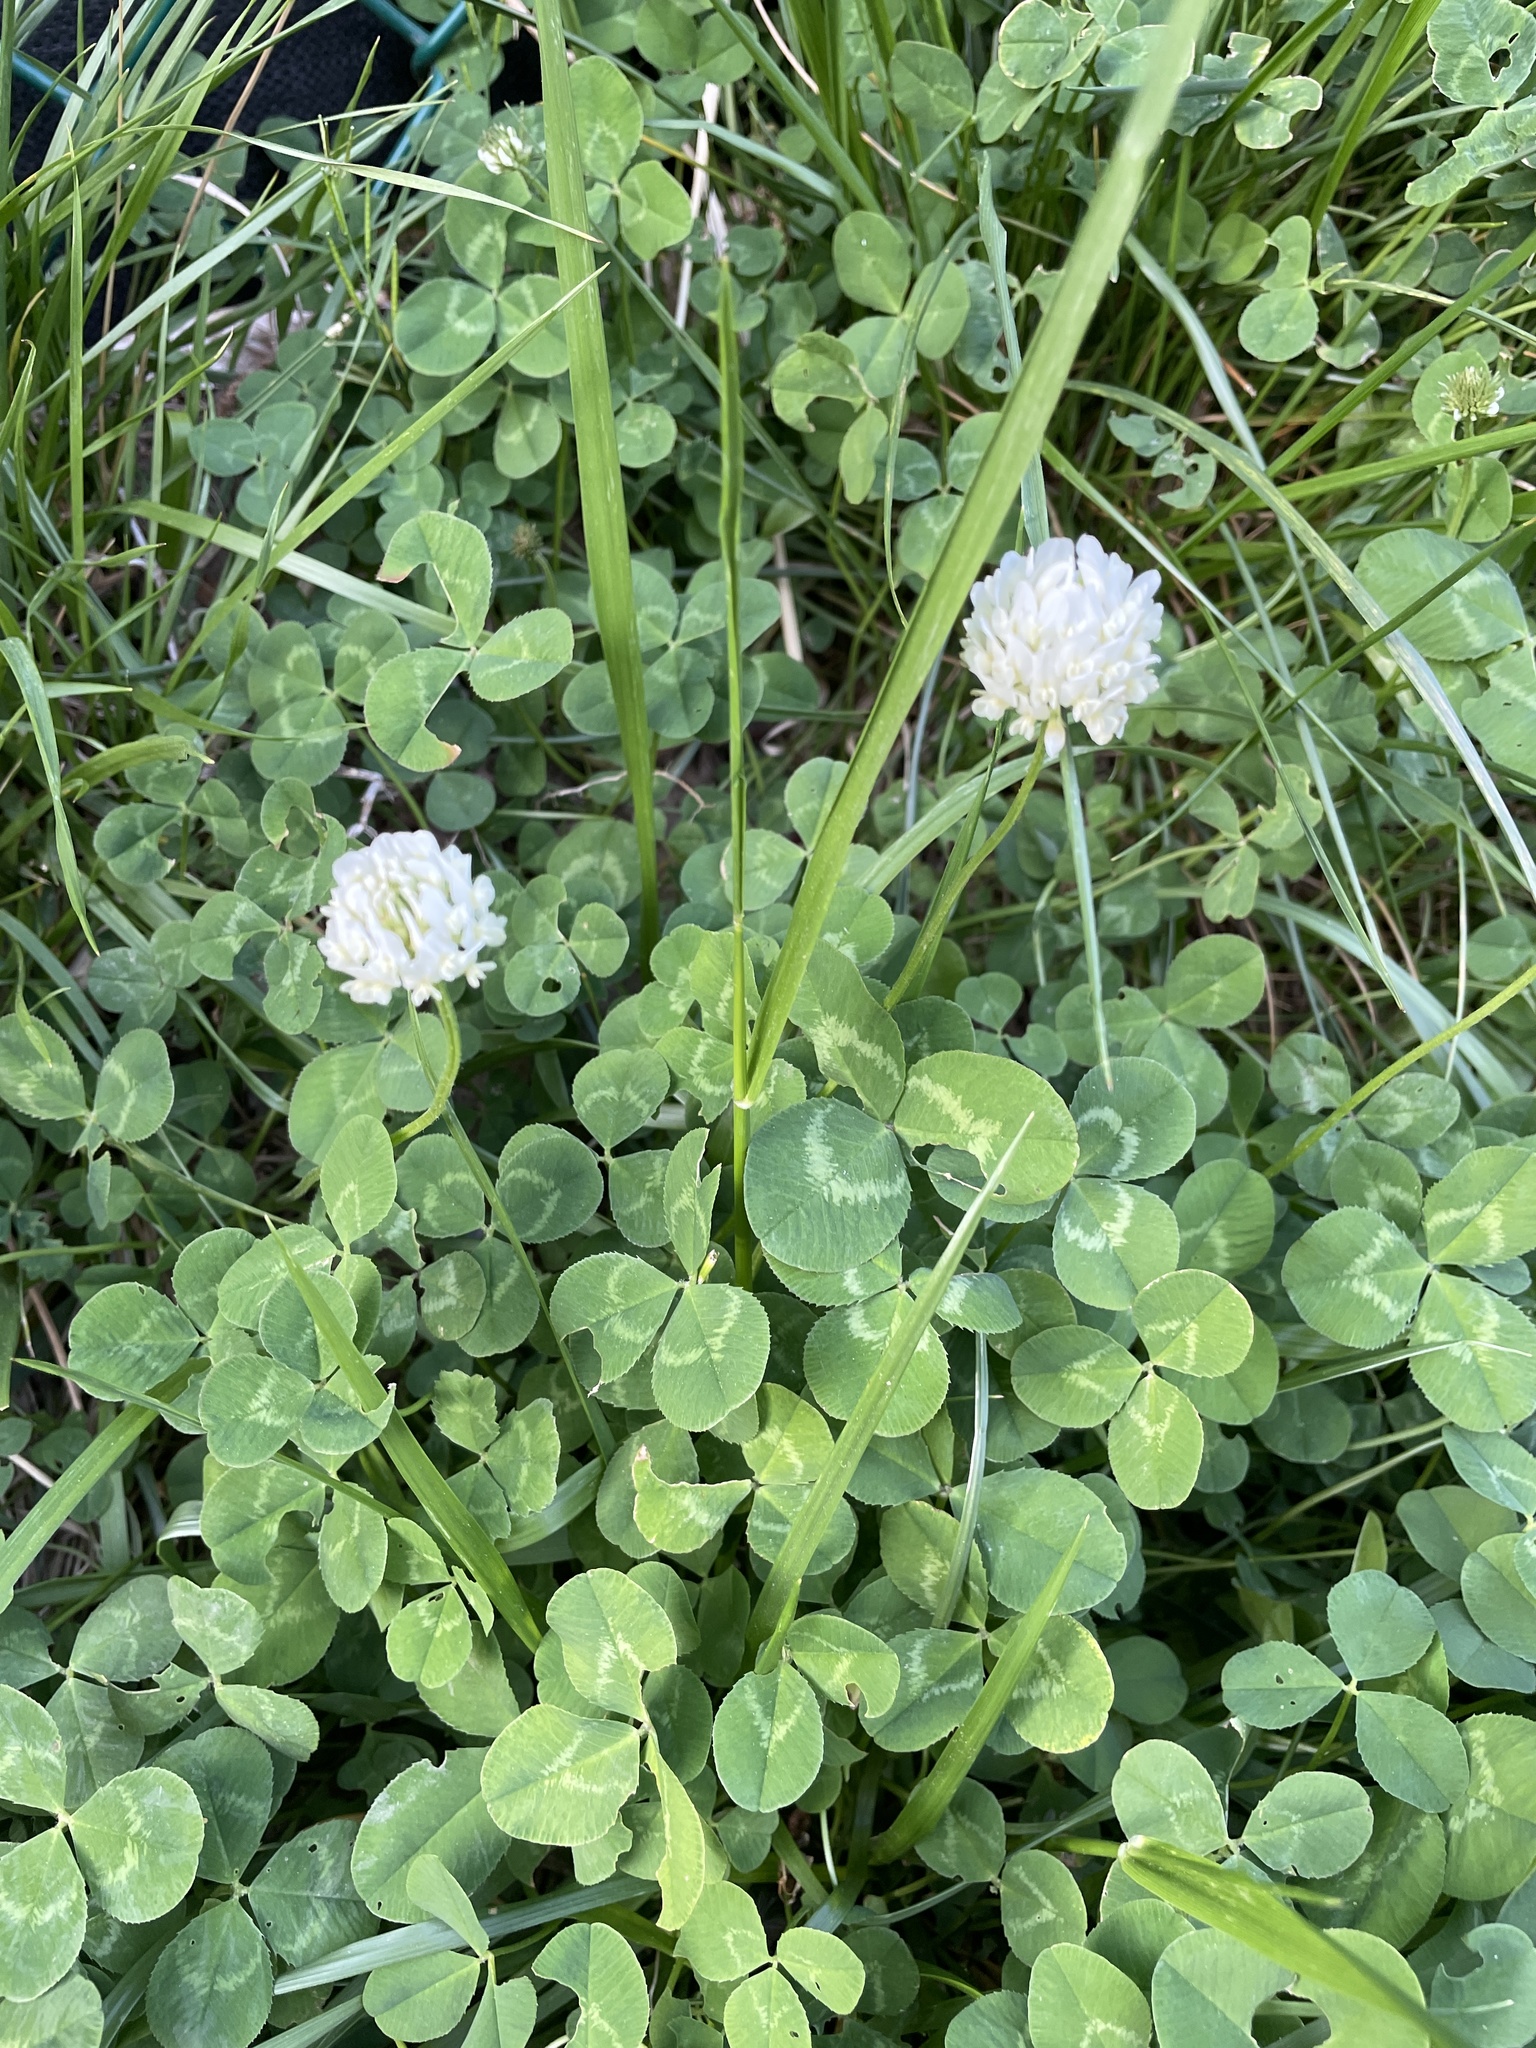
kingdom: Plantae
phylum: Tracheophyta
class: Magnoliopsida
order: Fabales
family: Fabaceae
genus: Trifolium
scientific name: Trifolium repens
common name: White clover
